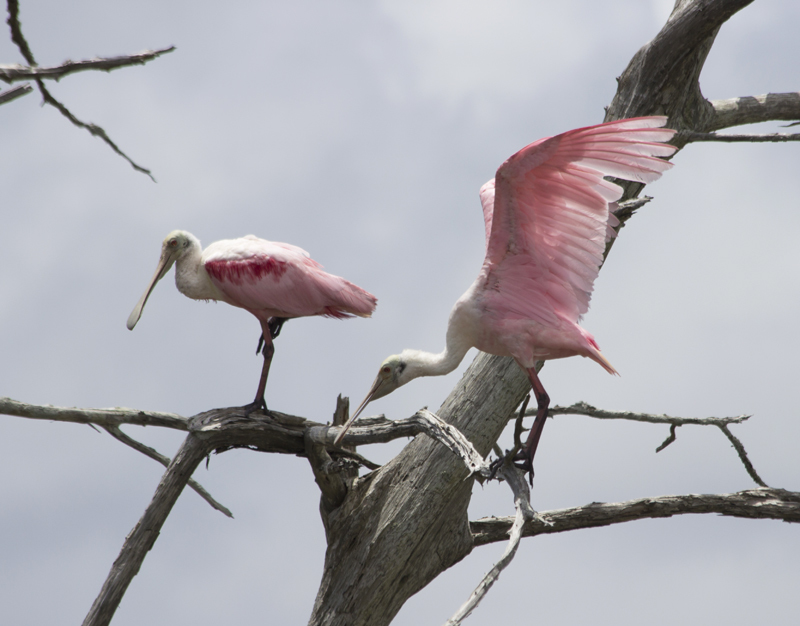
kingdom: Animalia
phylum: Chordata
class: Aves
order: Pelecaniformes
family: Threskiornithidae
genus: Platalea
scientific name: Platalea ajaja
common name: Roseate spoonbill
